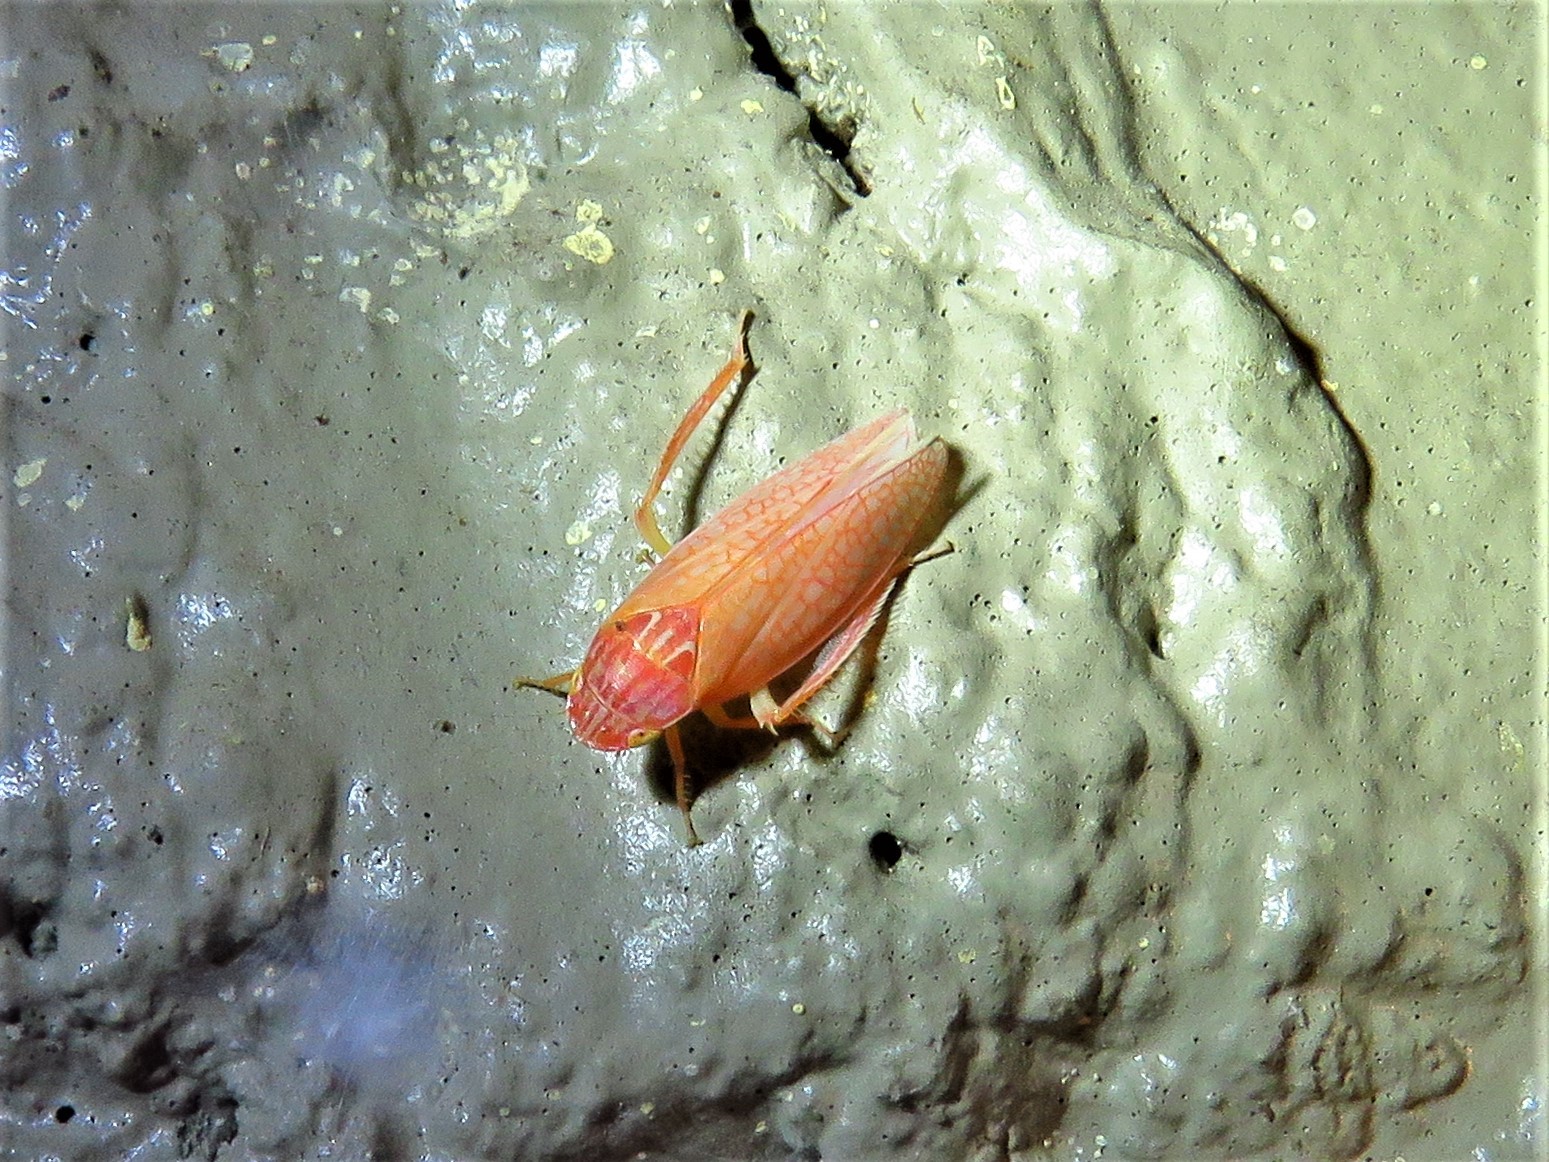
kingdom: Animalia
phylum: Arthropoda
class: Insecta
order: Hemiptera
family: Cicadellidae
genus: Gyponana
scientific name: Gyponana gladia
